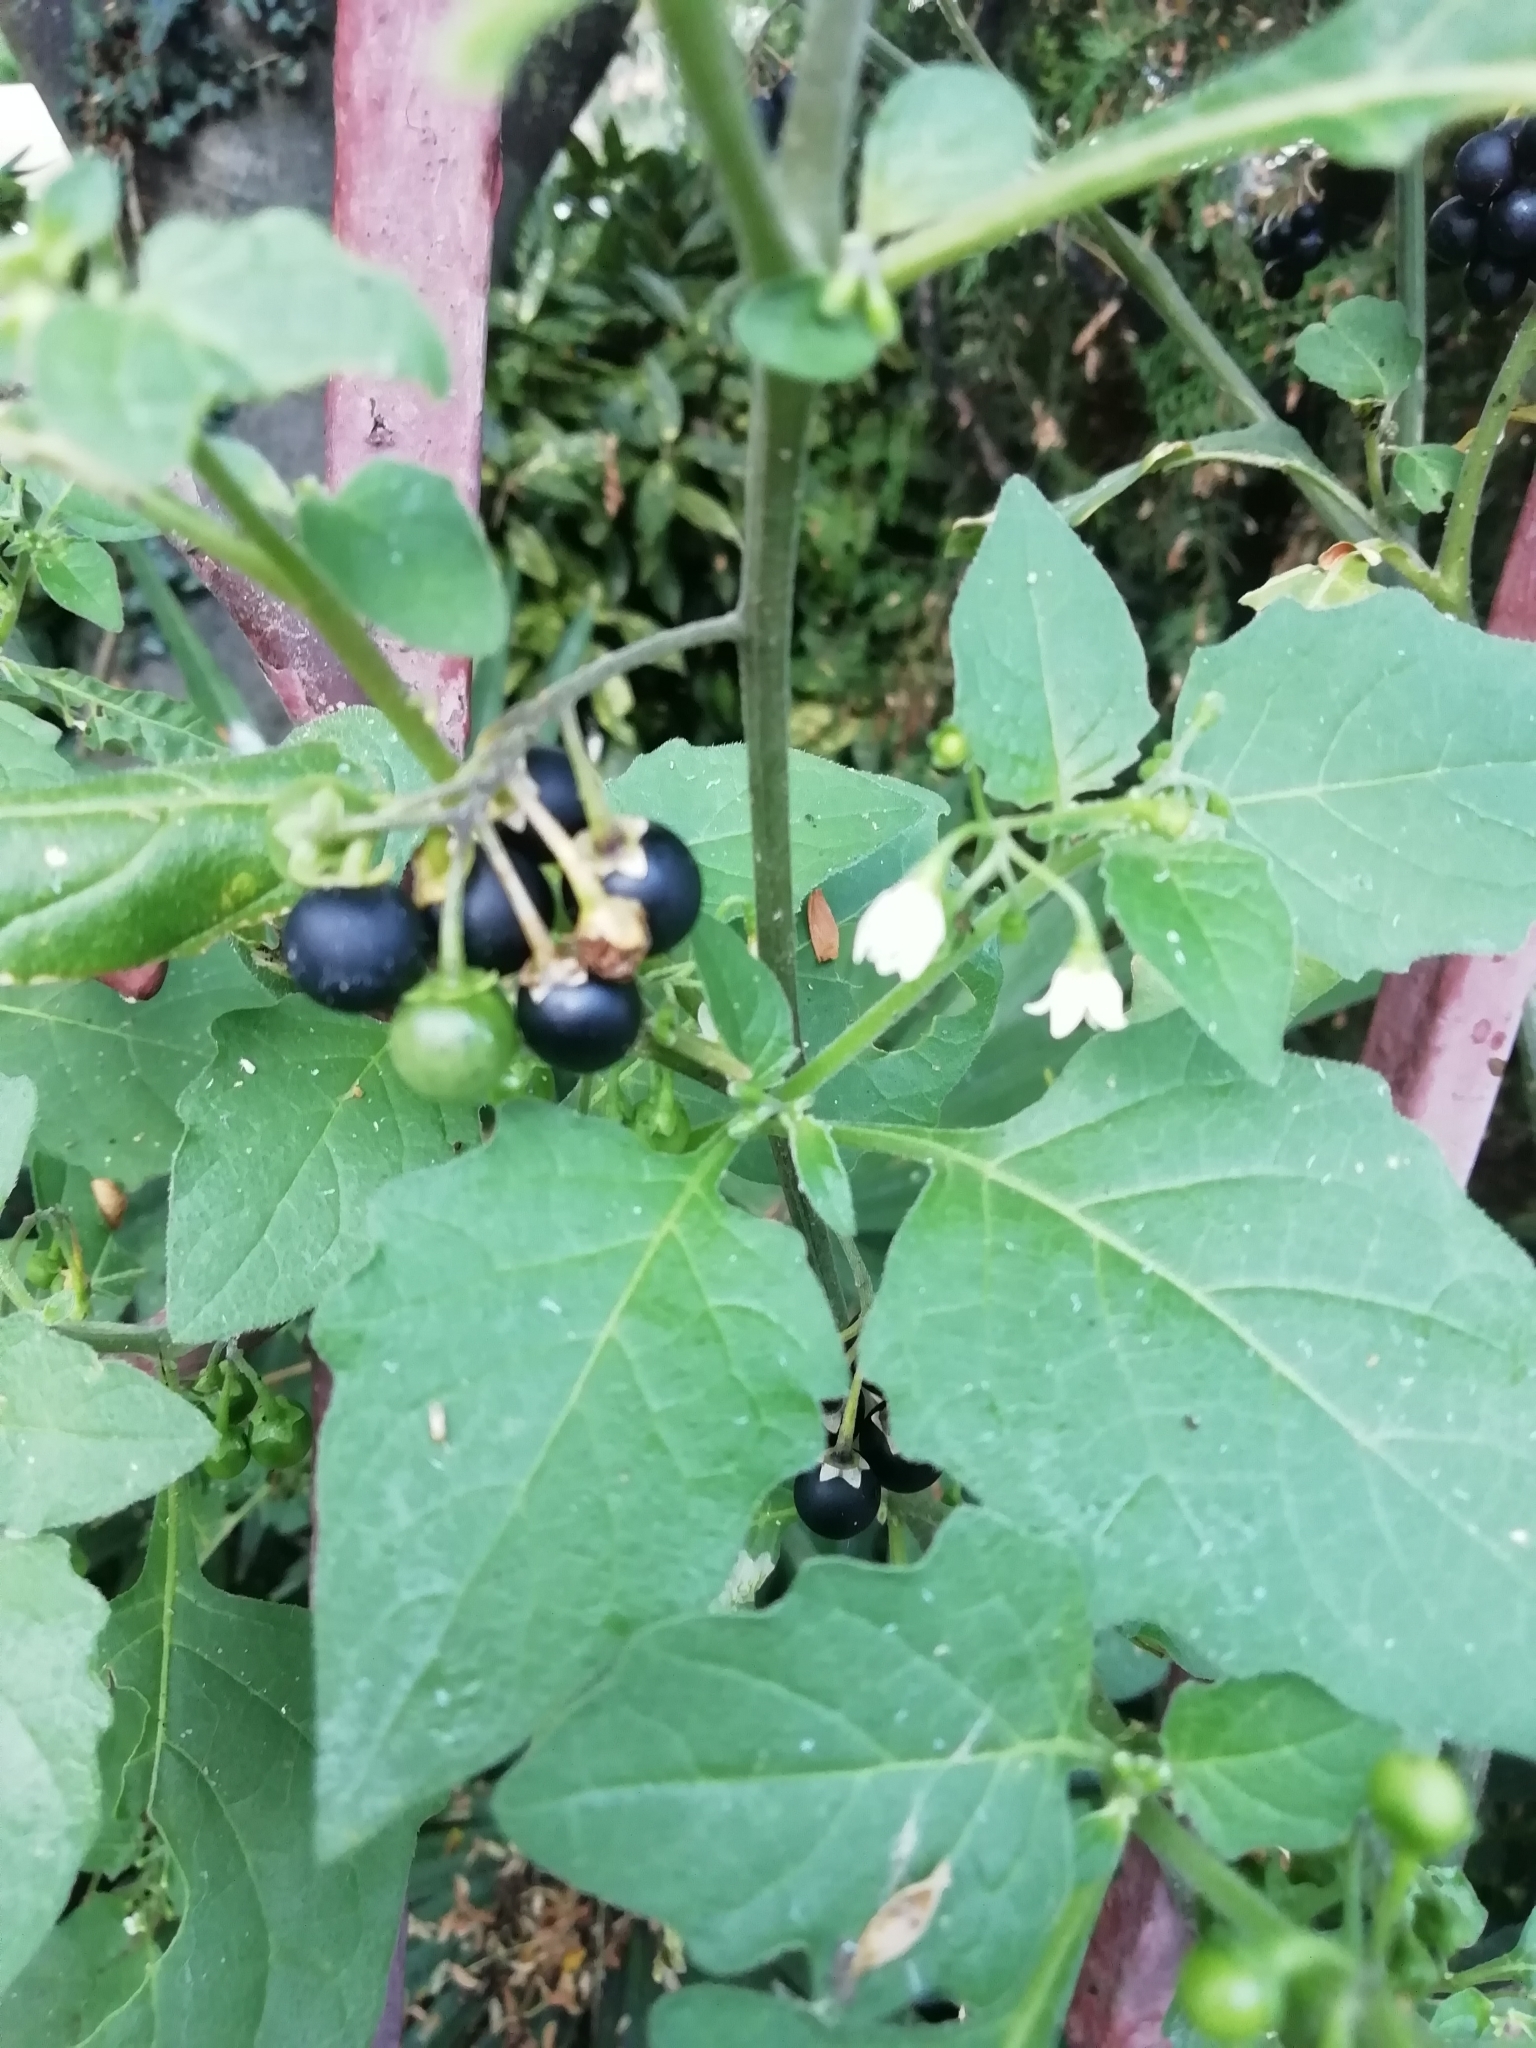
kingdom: Plantae
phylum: Tracheophyta
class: Magnoliopsida
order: Solanales
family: Solanaceae
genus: Solanum
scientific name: Solanum nigrum
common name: Black nightshade
